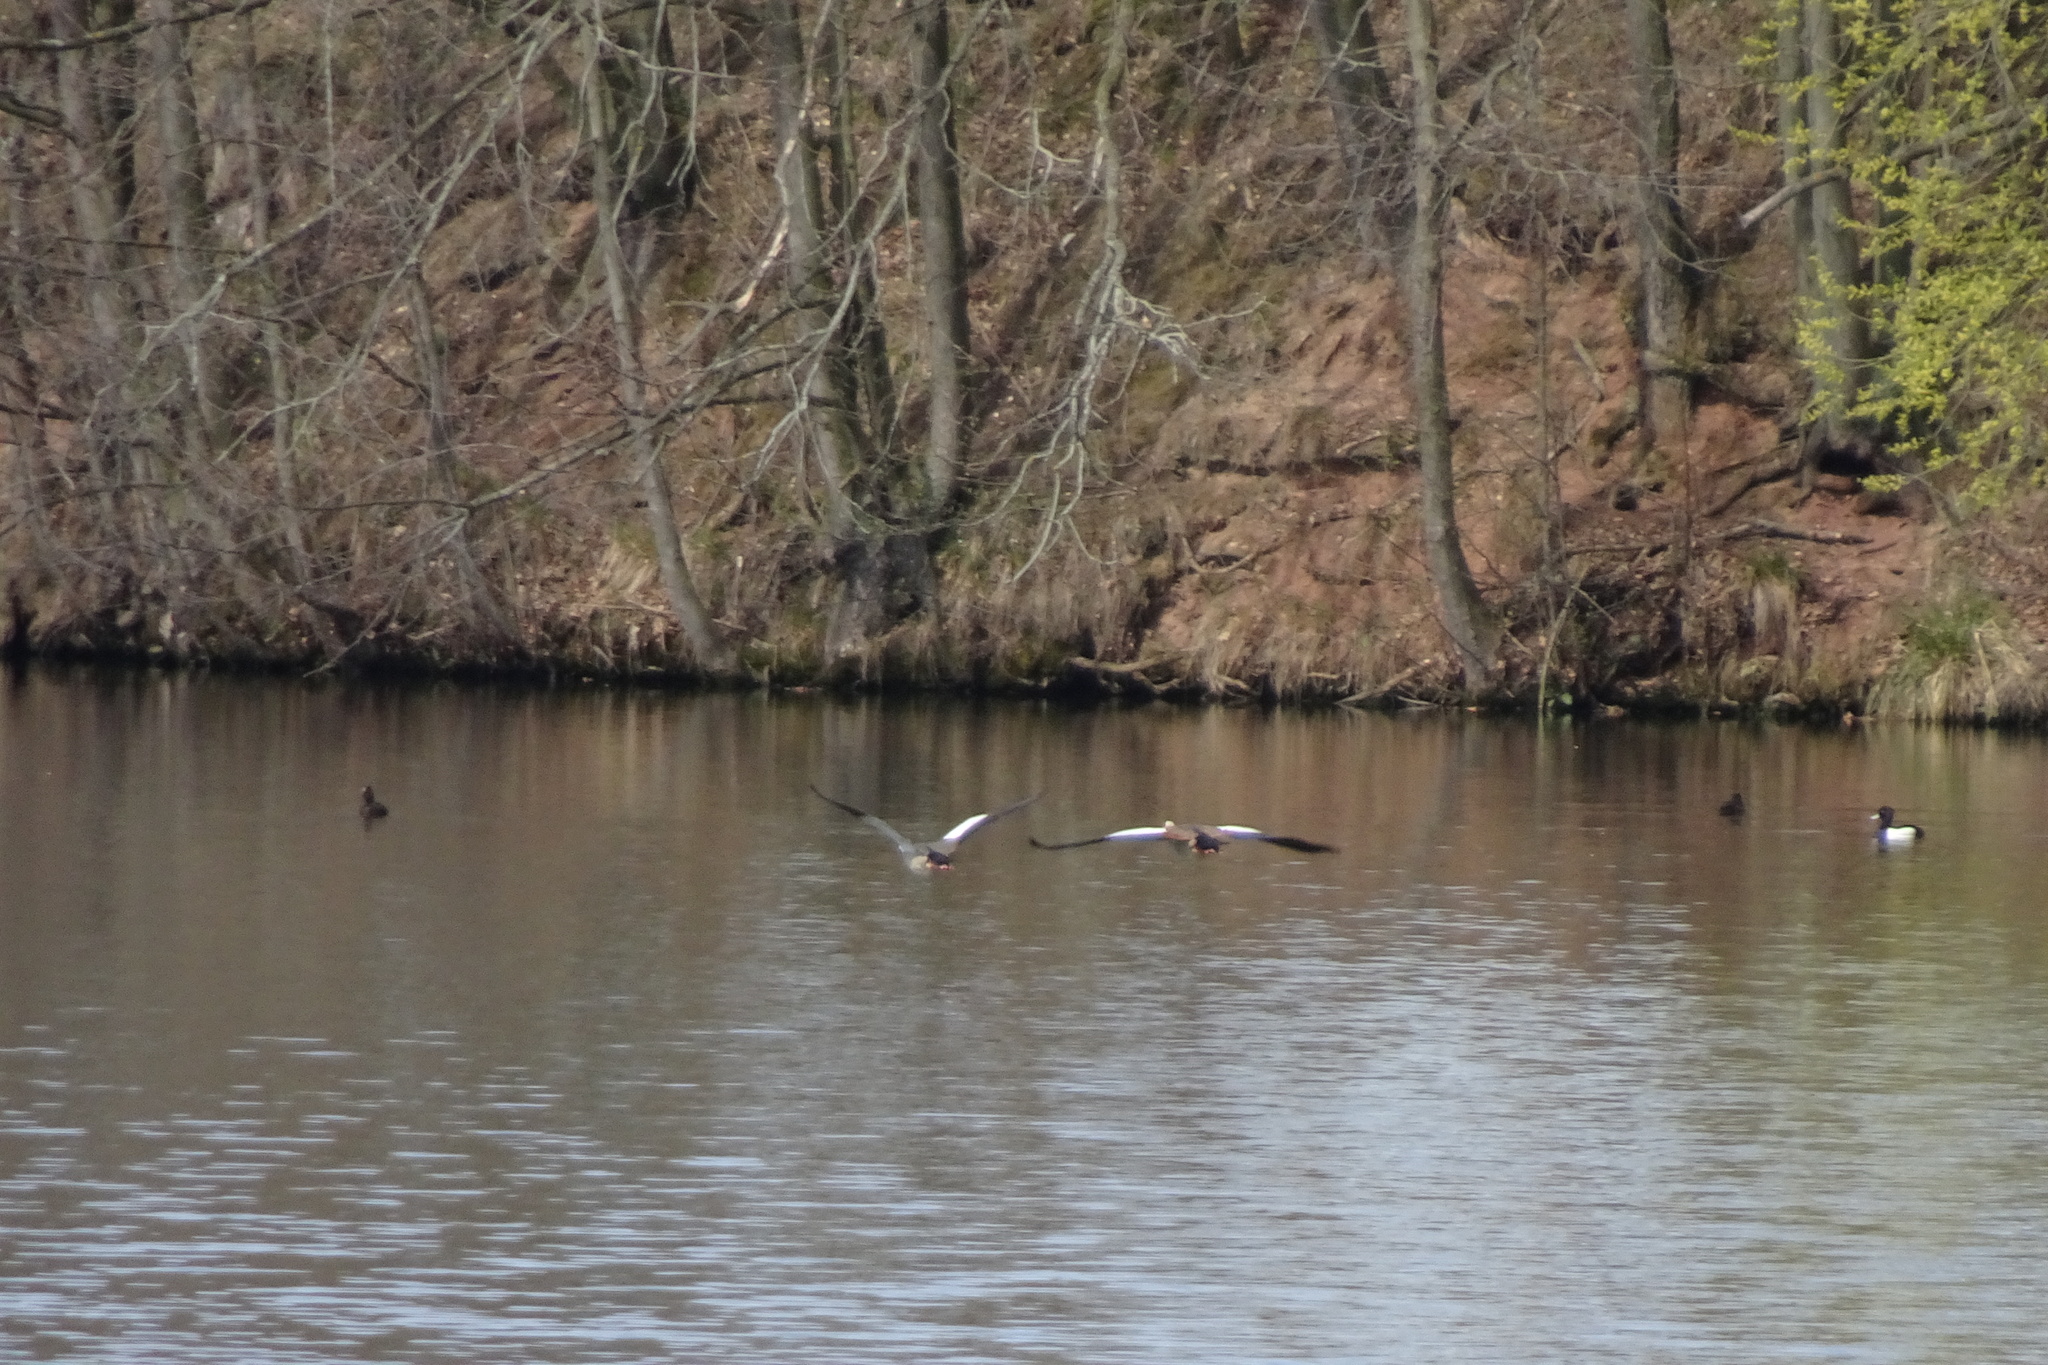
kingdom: Animalia
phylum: Chordata
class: Aves
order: Anseriformes
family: Anatidae
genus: Alopochen
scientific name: Alopochen aegyptiaca
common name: Egyptian goose
